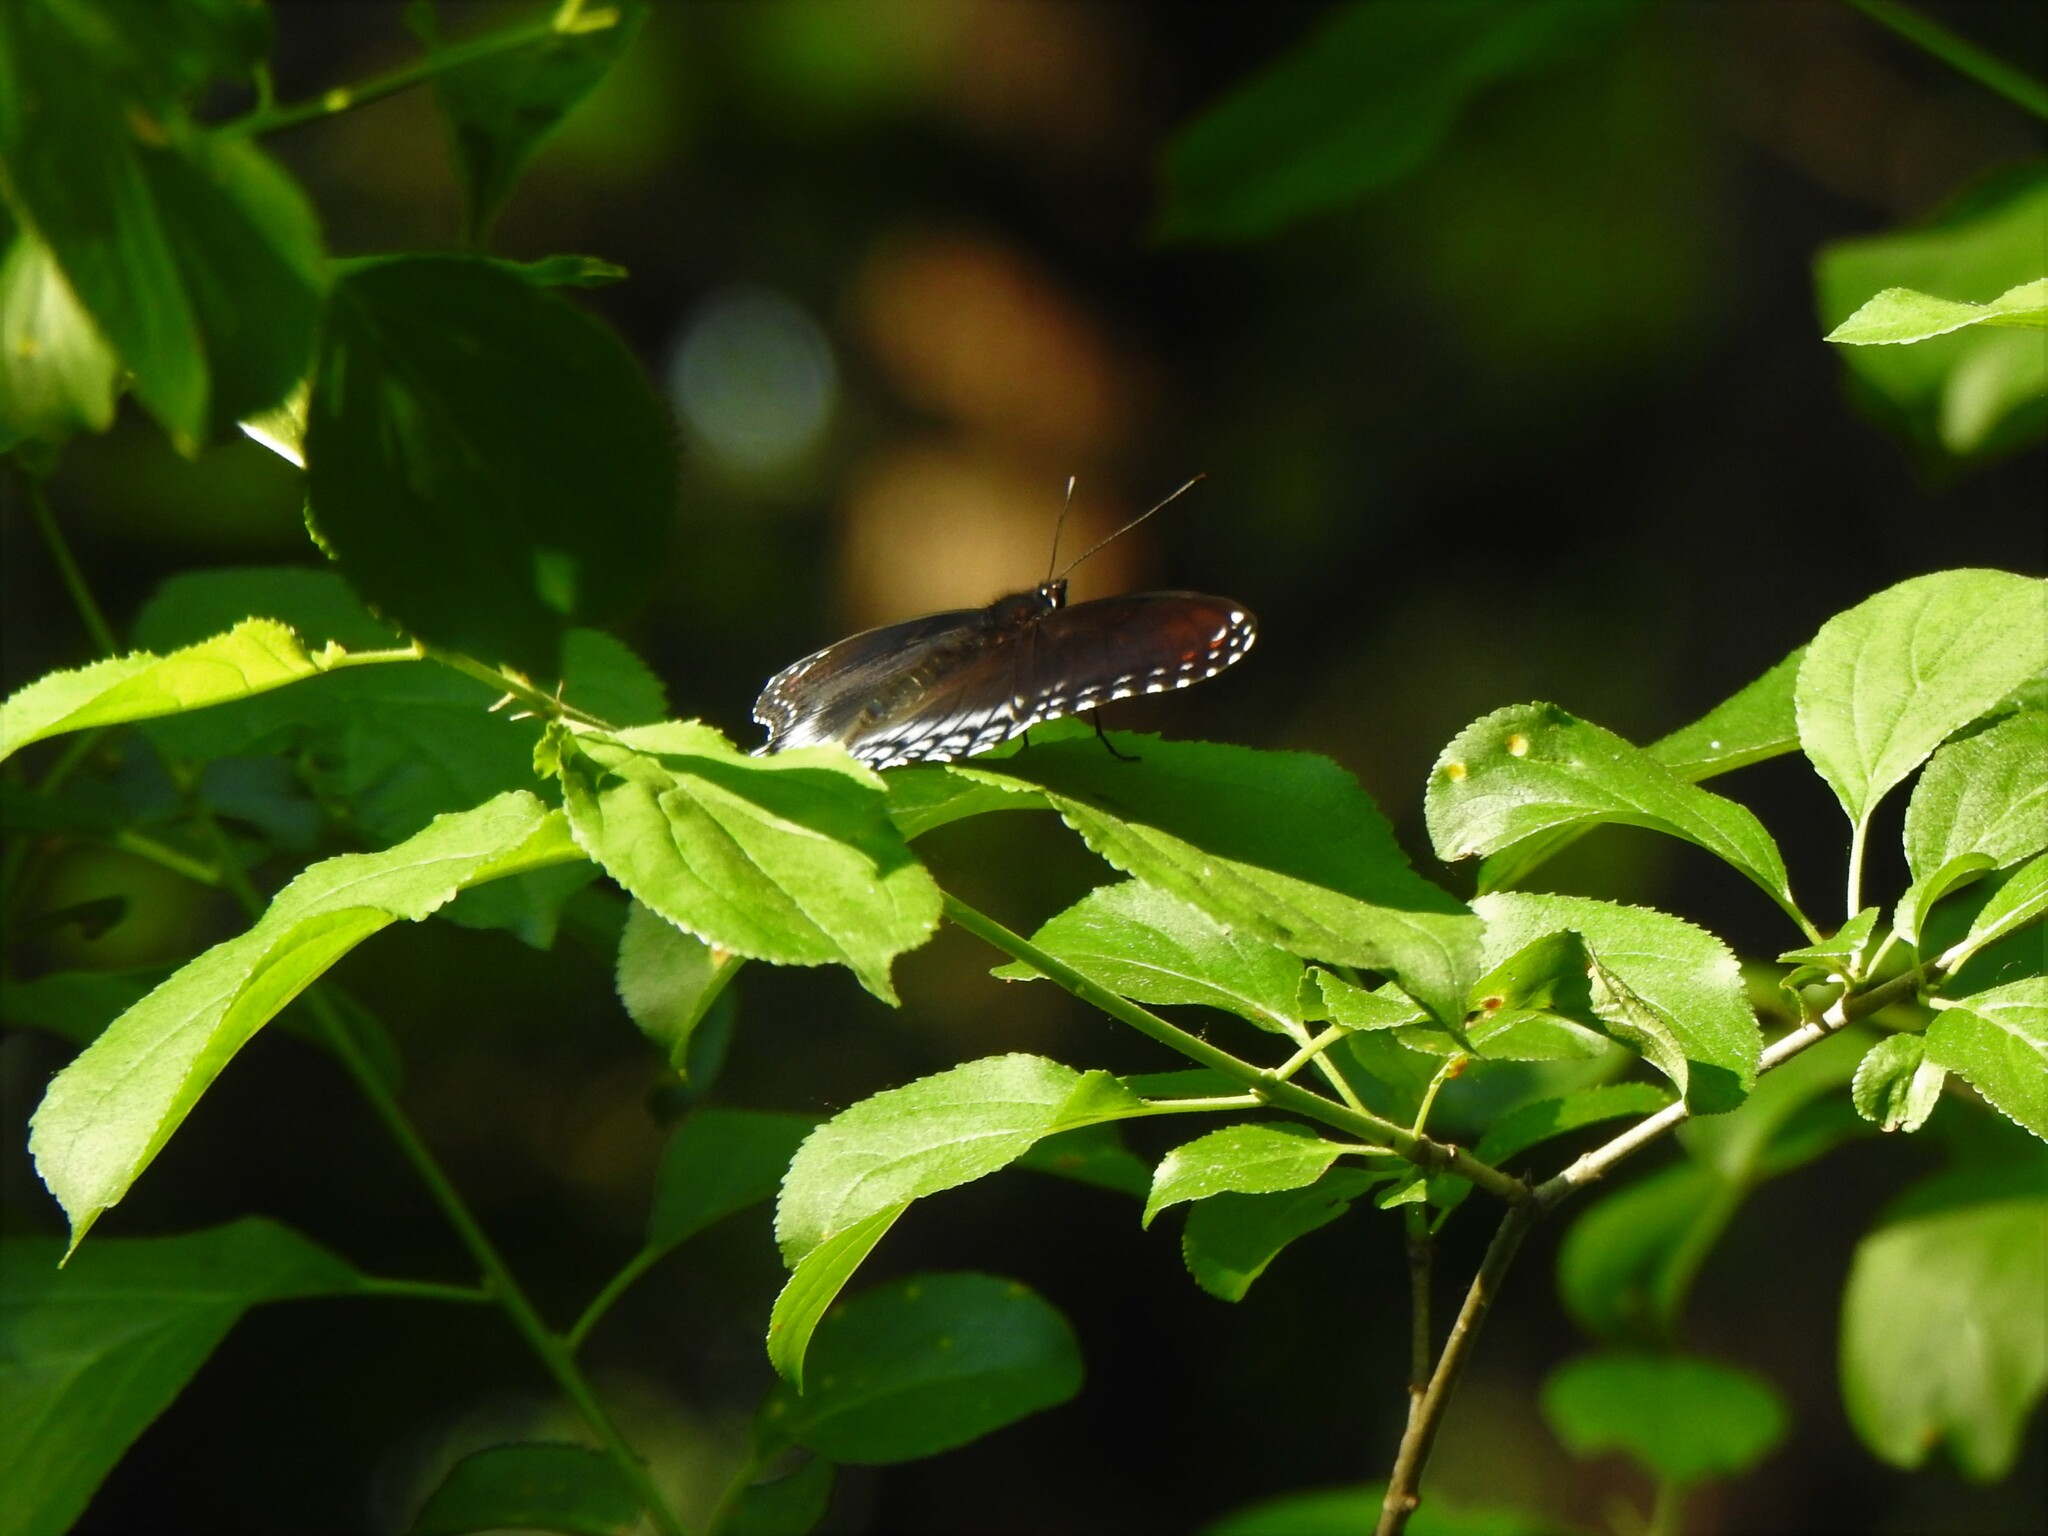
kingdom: Animalia
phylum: Arthropoda
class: Insecta
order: Lepidoptera
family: Nymphalidae
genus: Limenitis
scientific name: Limenitis astyanax
